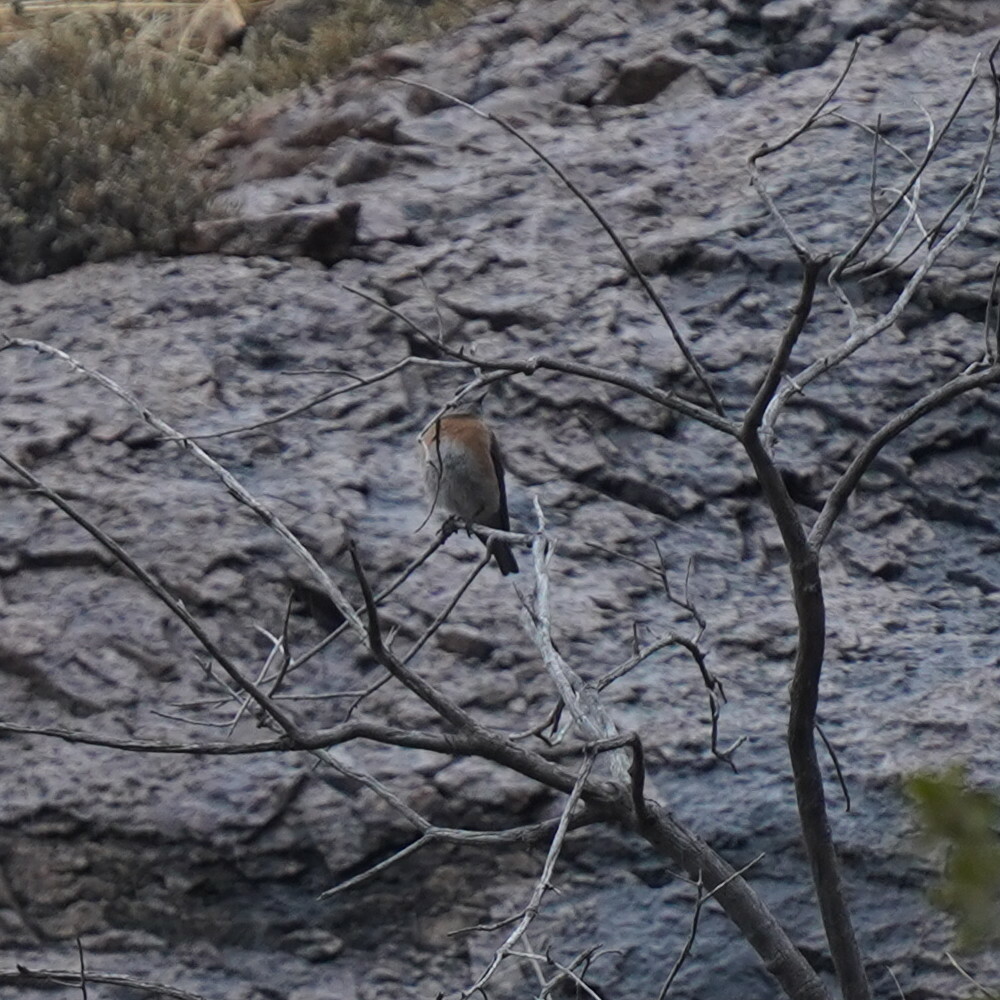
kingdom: Animalia
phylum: Chordata
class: Aves
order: Passeriformes
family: Turdidae
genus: Sialia
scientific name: Sialia mexicana
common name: Western bluebird
